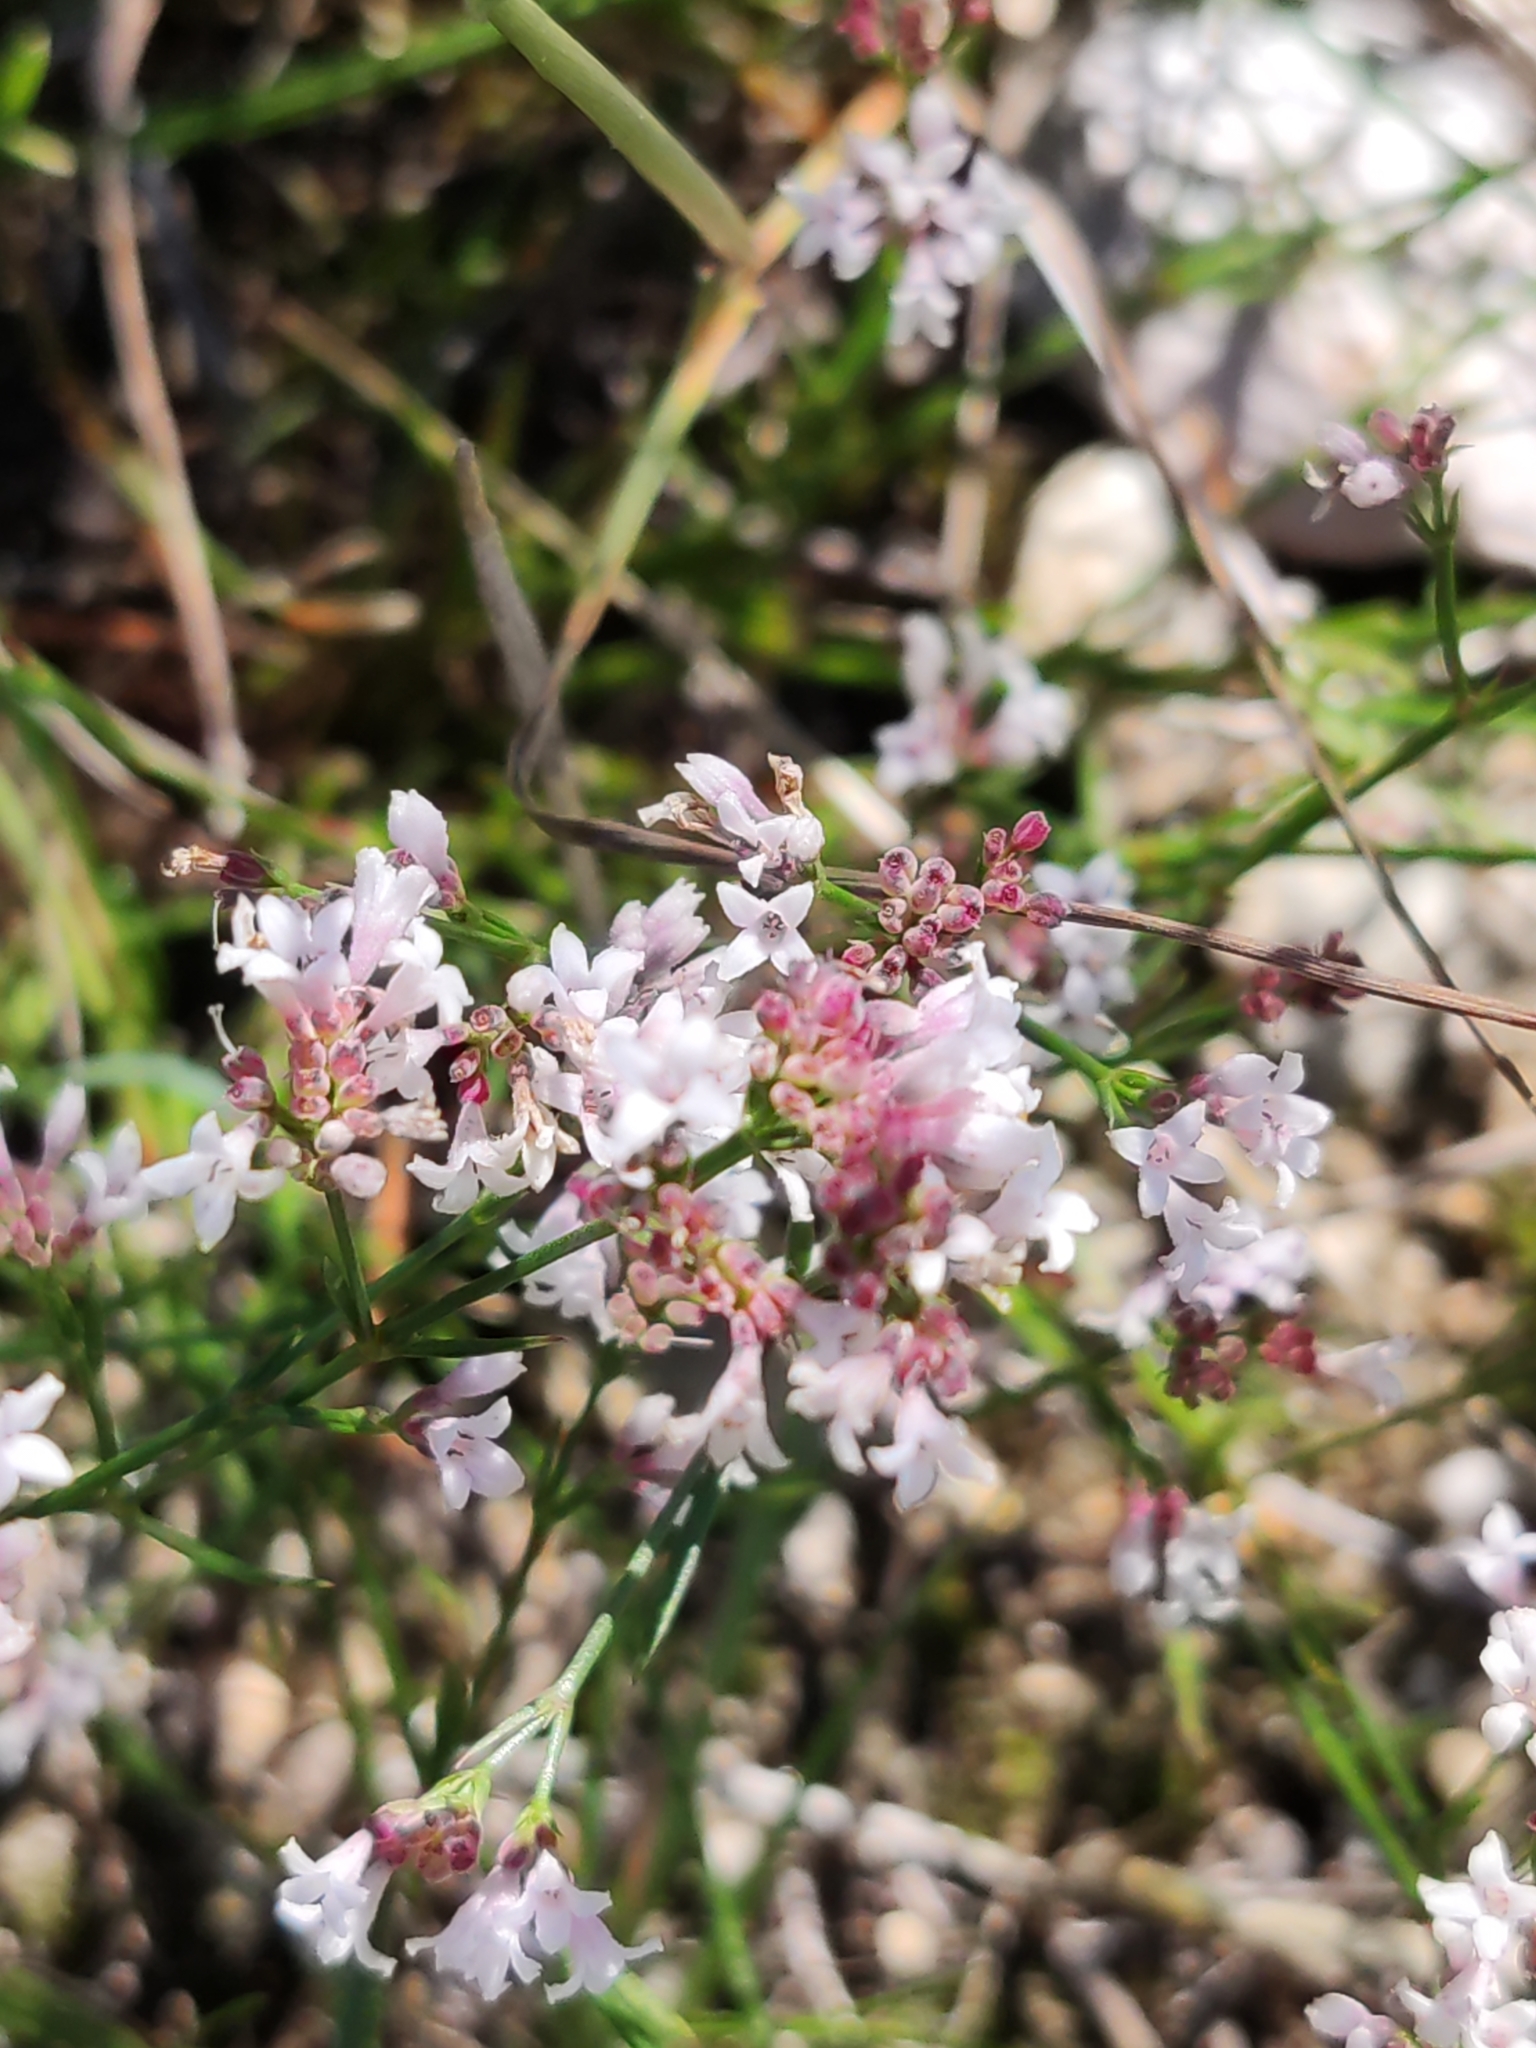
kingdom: Plantae
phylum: Tracheophyta
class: Magnoliopsida
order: Gentianales
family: Rubiaceae
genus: Cynanchica
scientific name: Cynanchica pyrenaica
